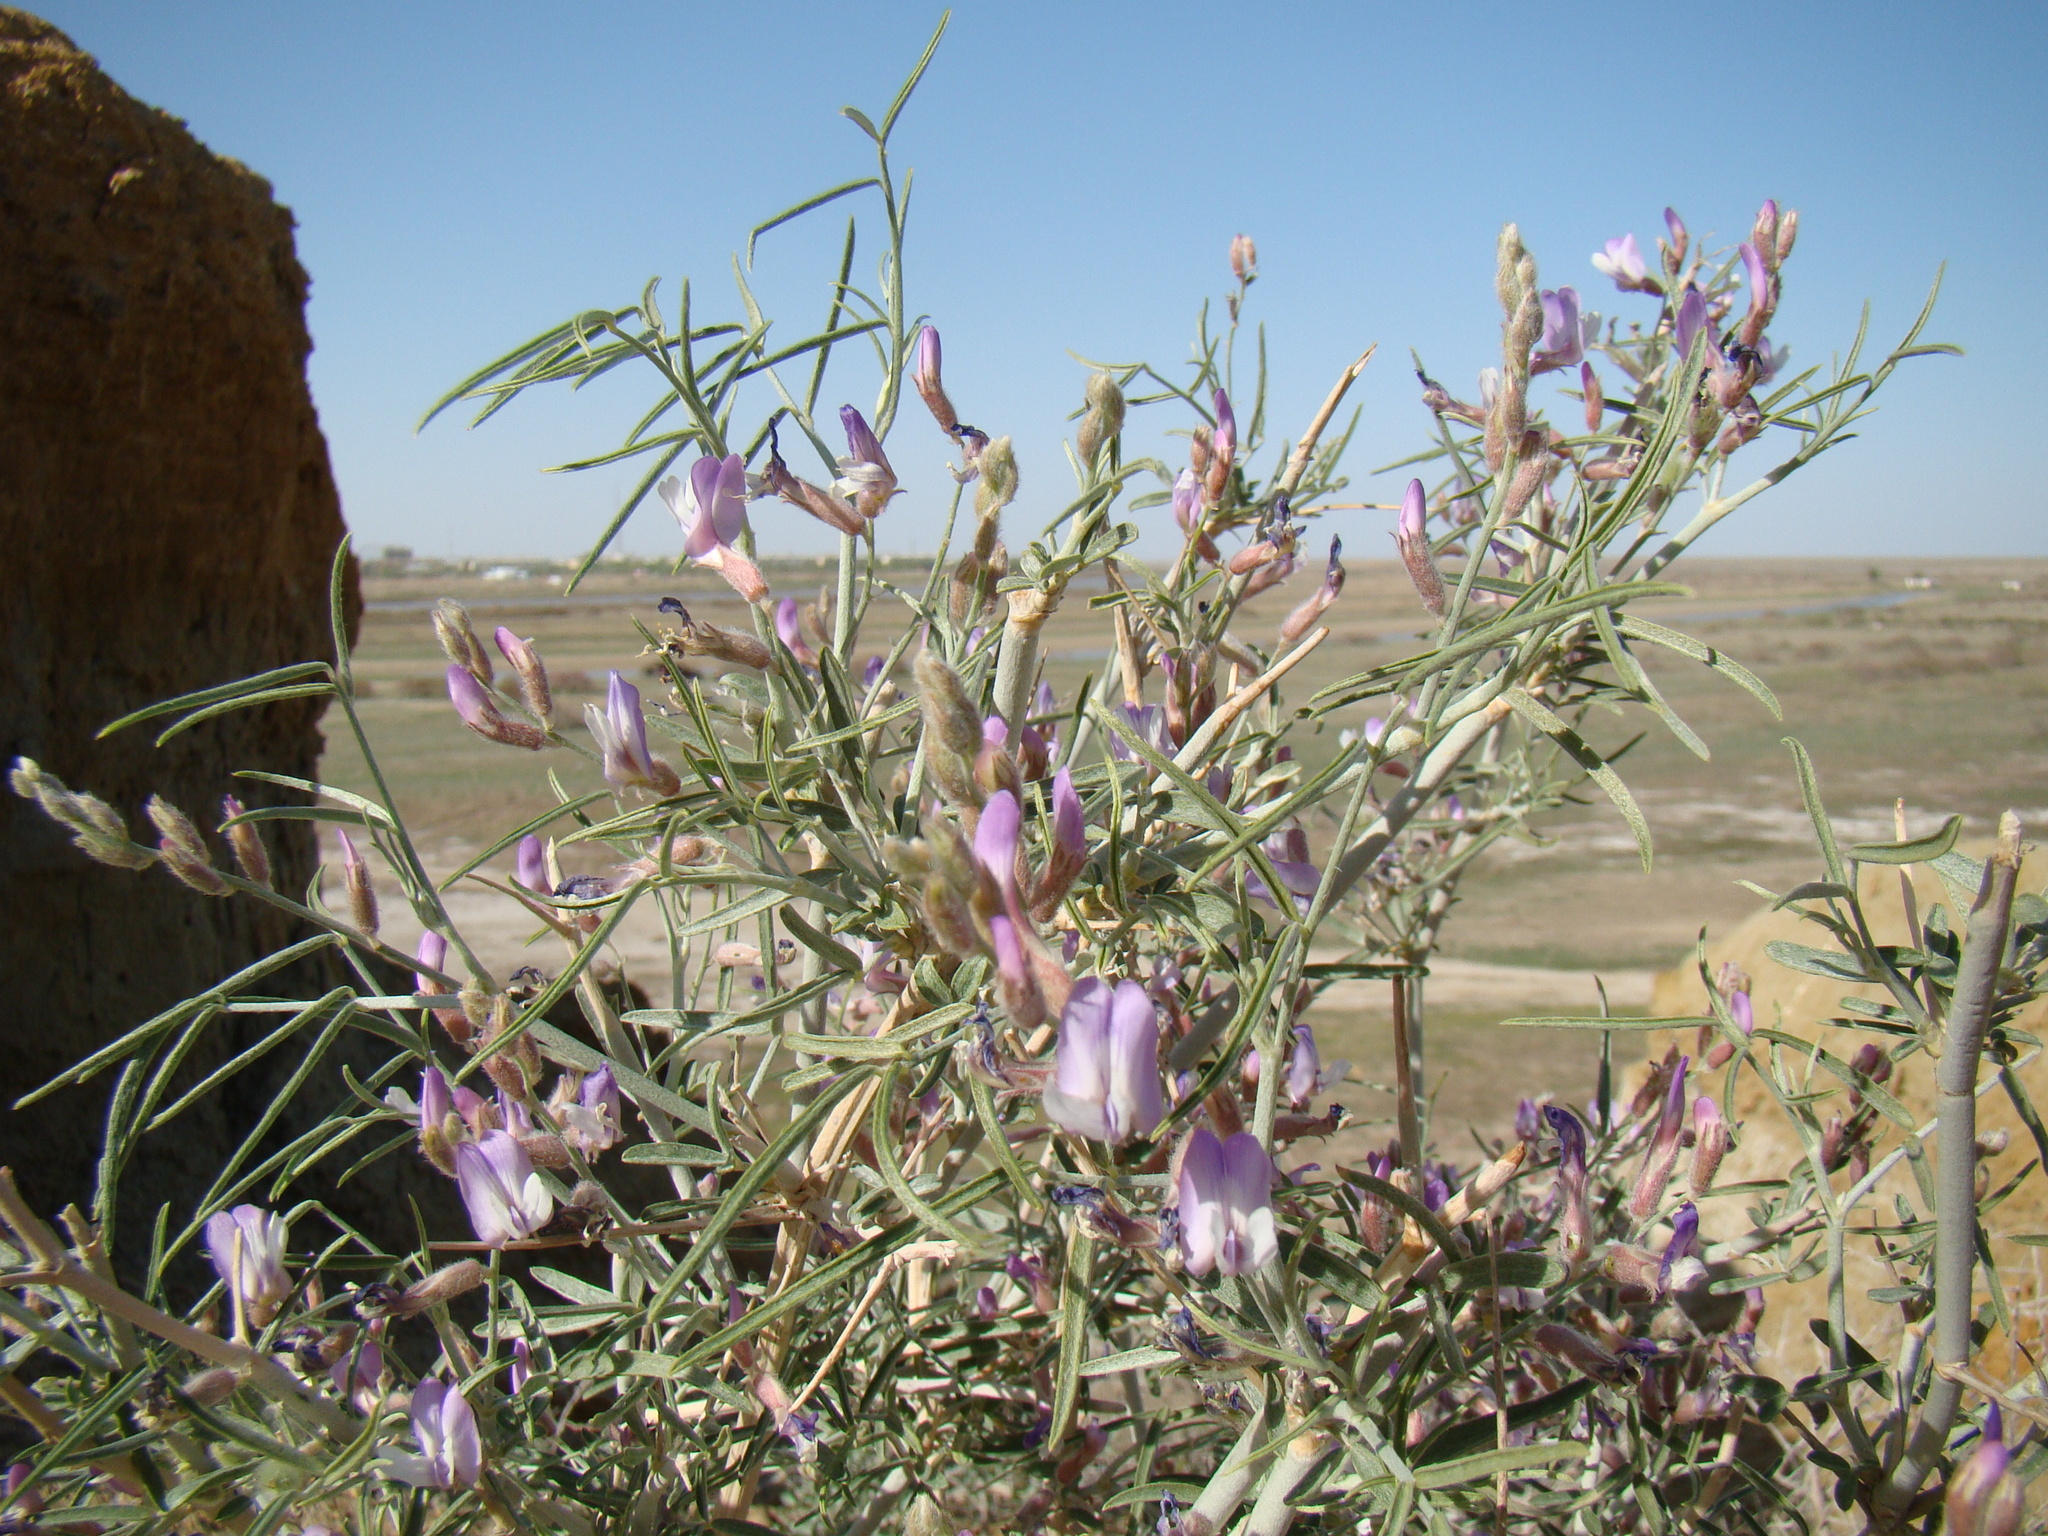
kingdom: Plantae
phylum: Tracheophyta
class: Magnoliopsida
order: Fabales
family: Fabaceae
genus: Astragalus
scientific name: Astragalus brachypus
